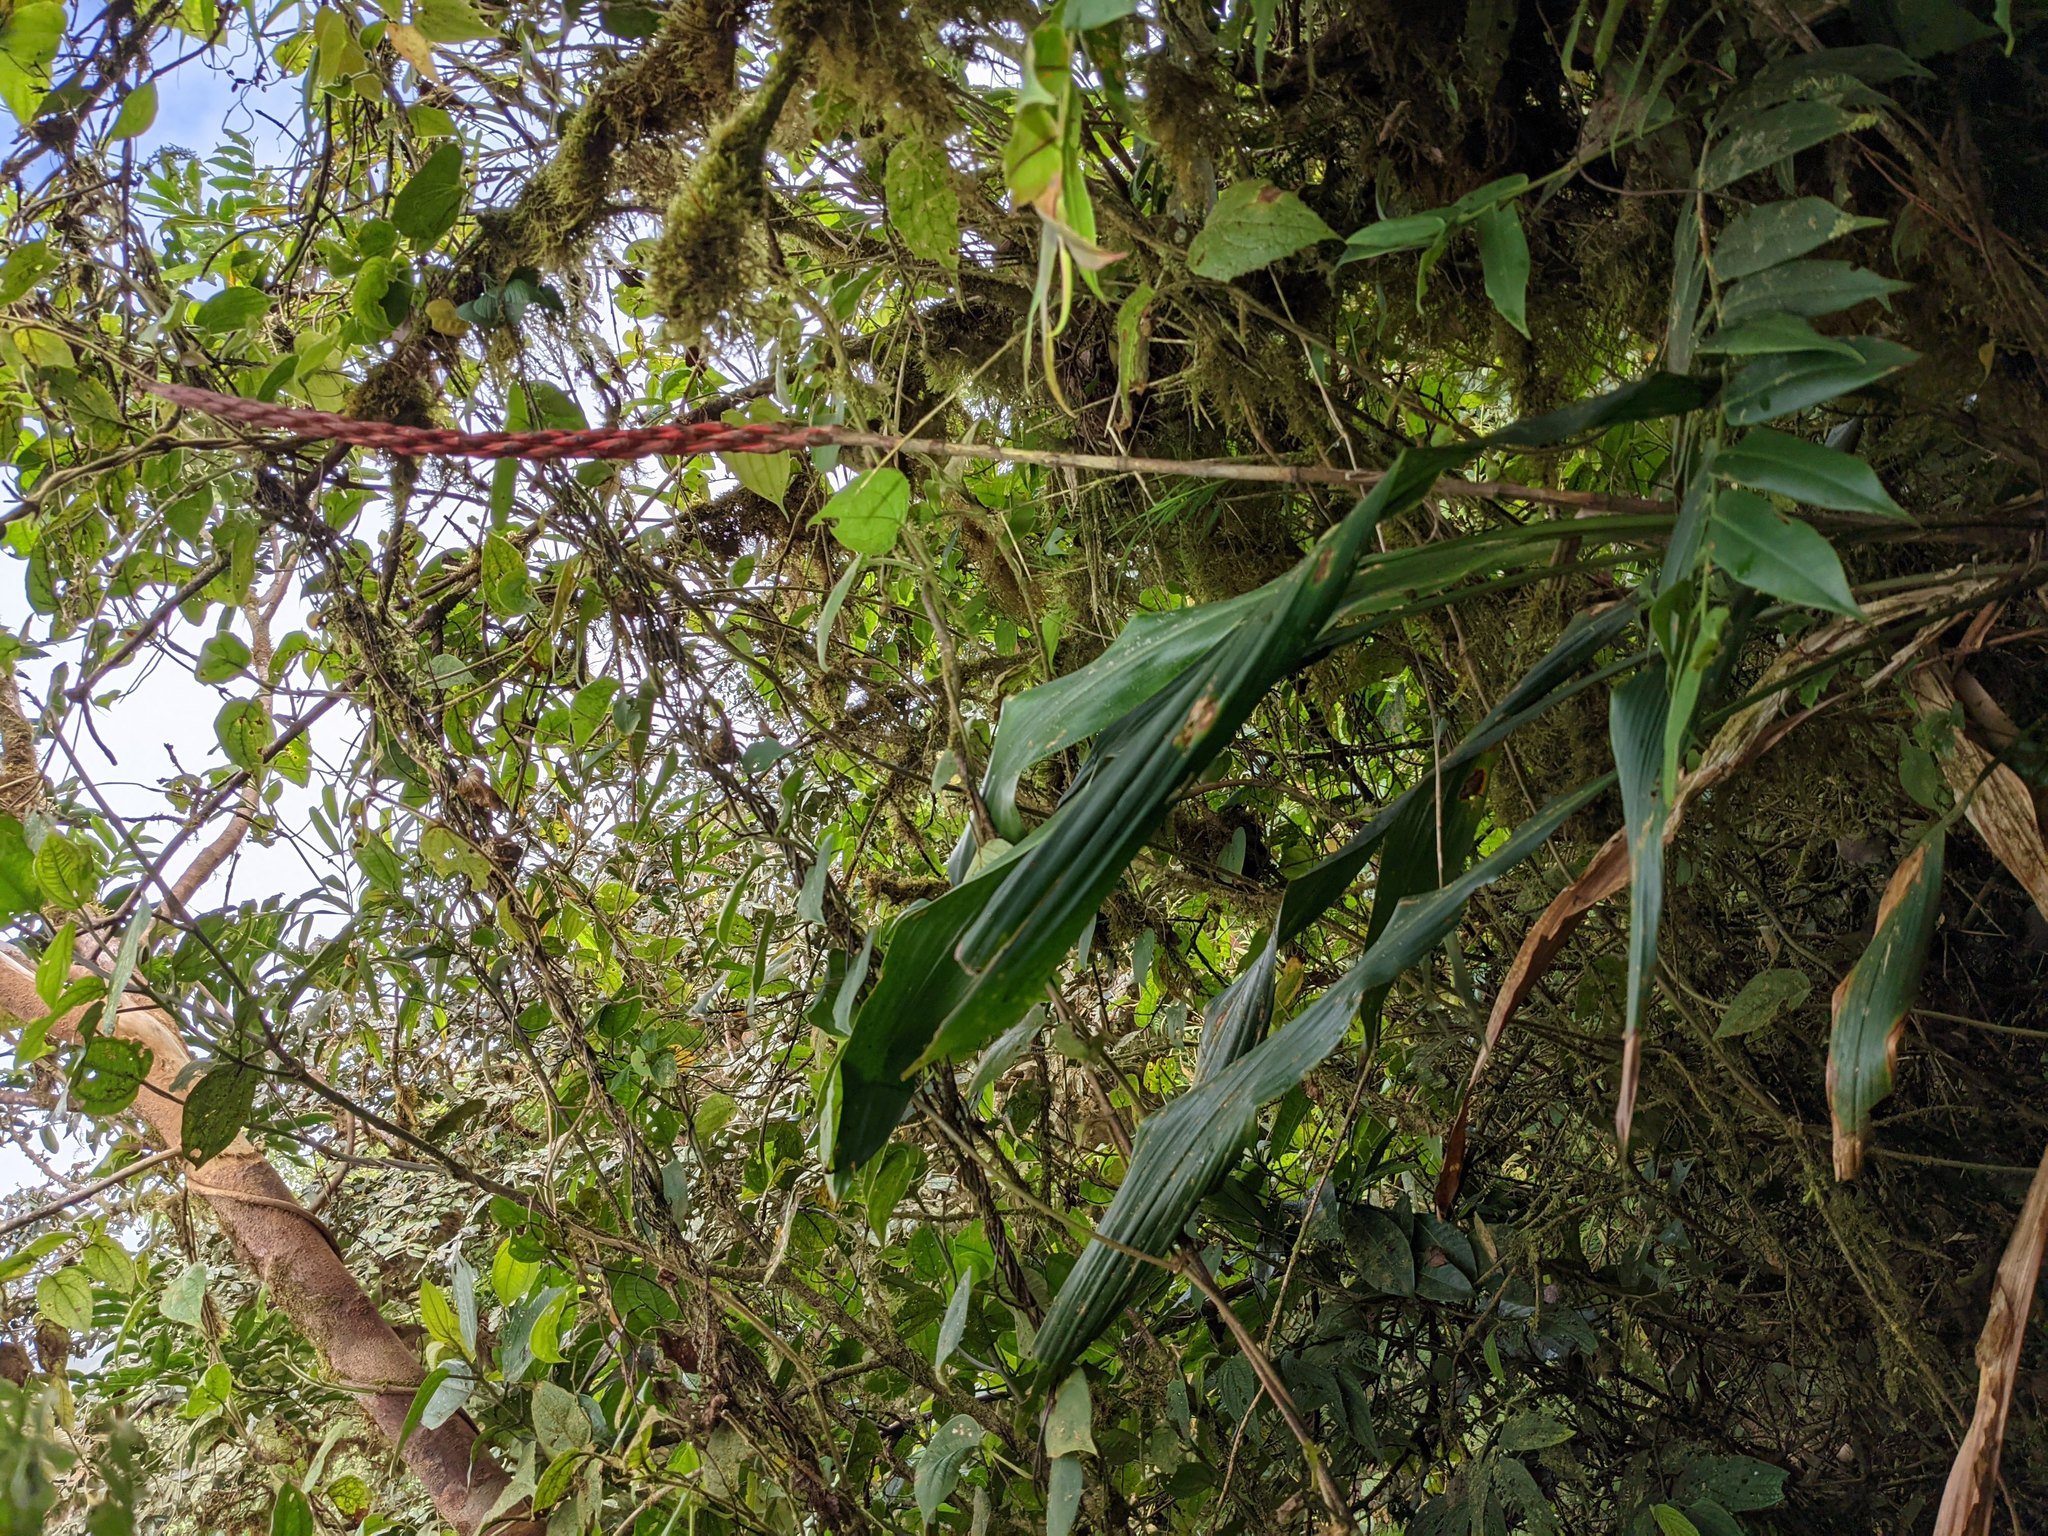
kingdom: Plantae
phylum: Tracheophyta
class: Liliopsida
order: Poales
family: Bromeliaceae
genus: Pitcairnia
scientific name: Pitcairnia brittoniana
